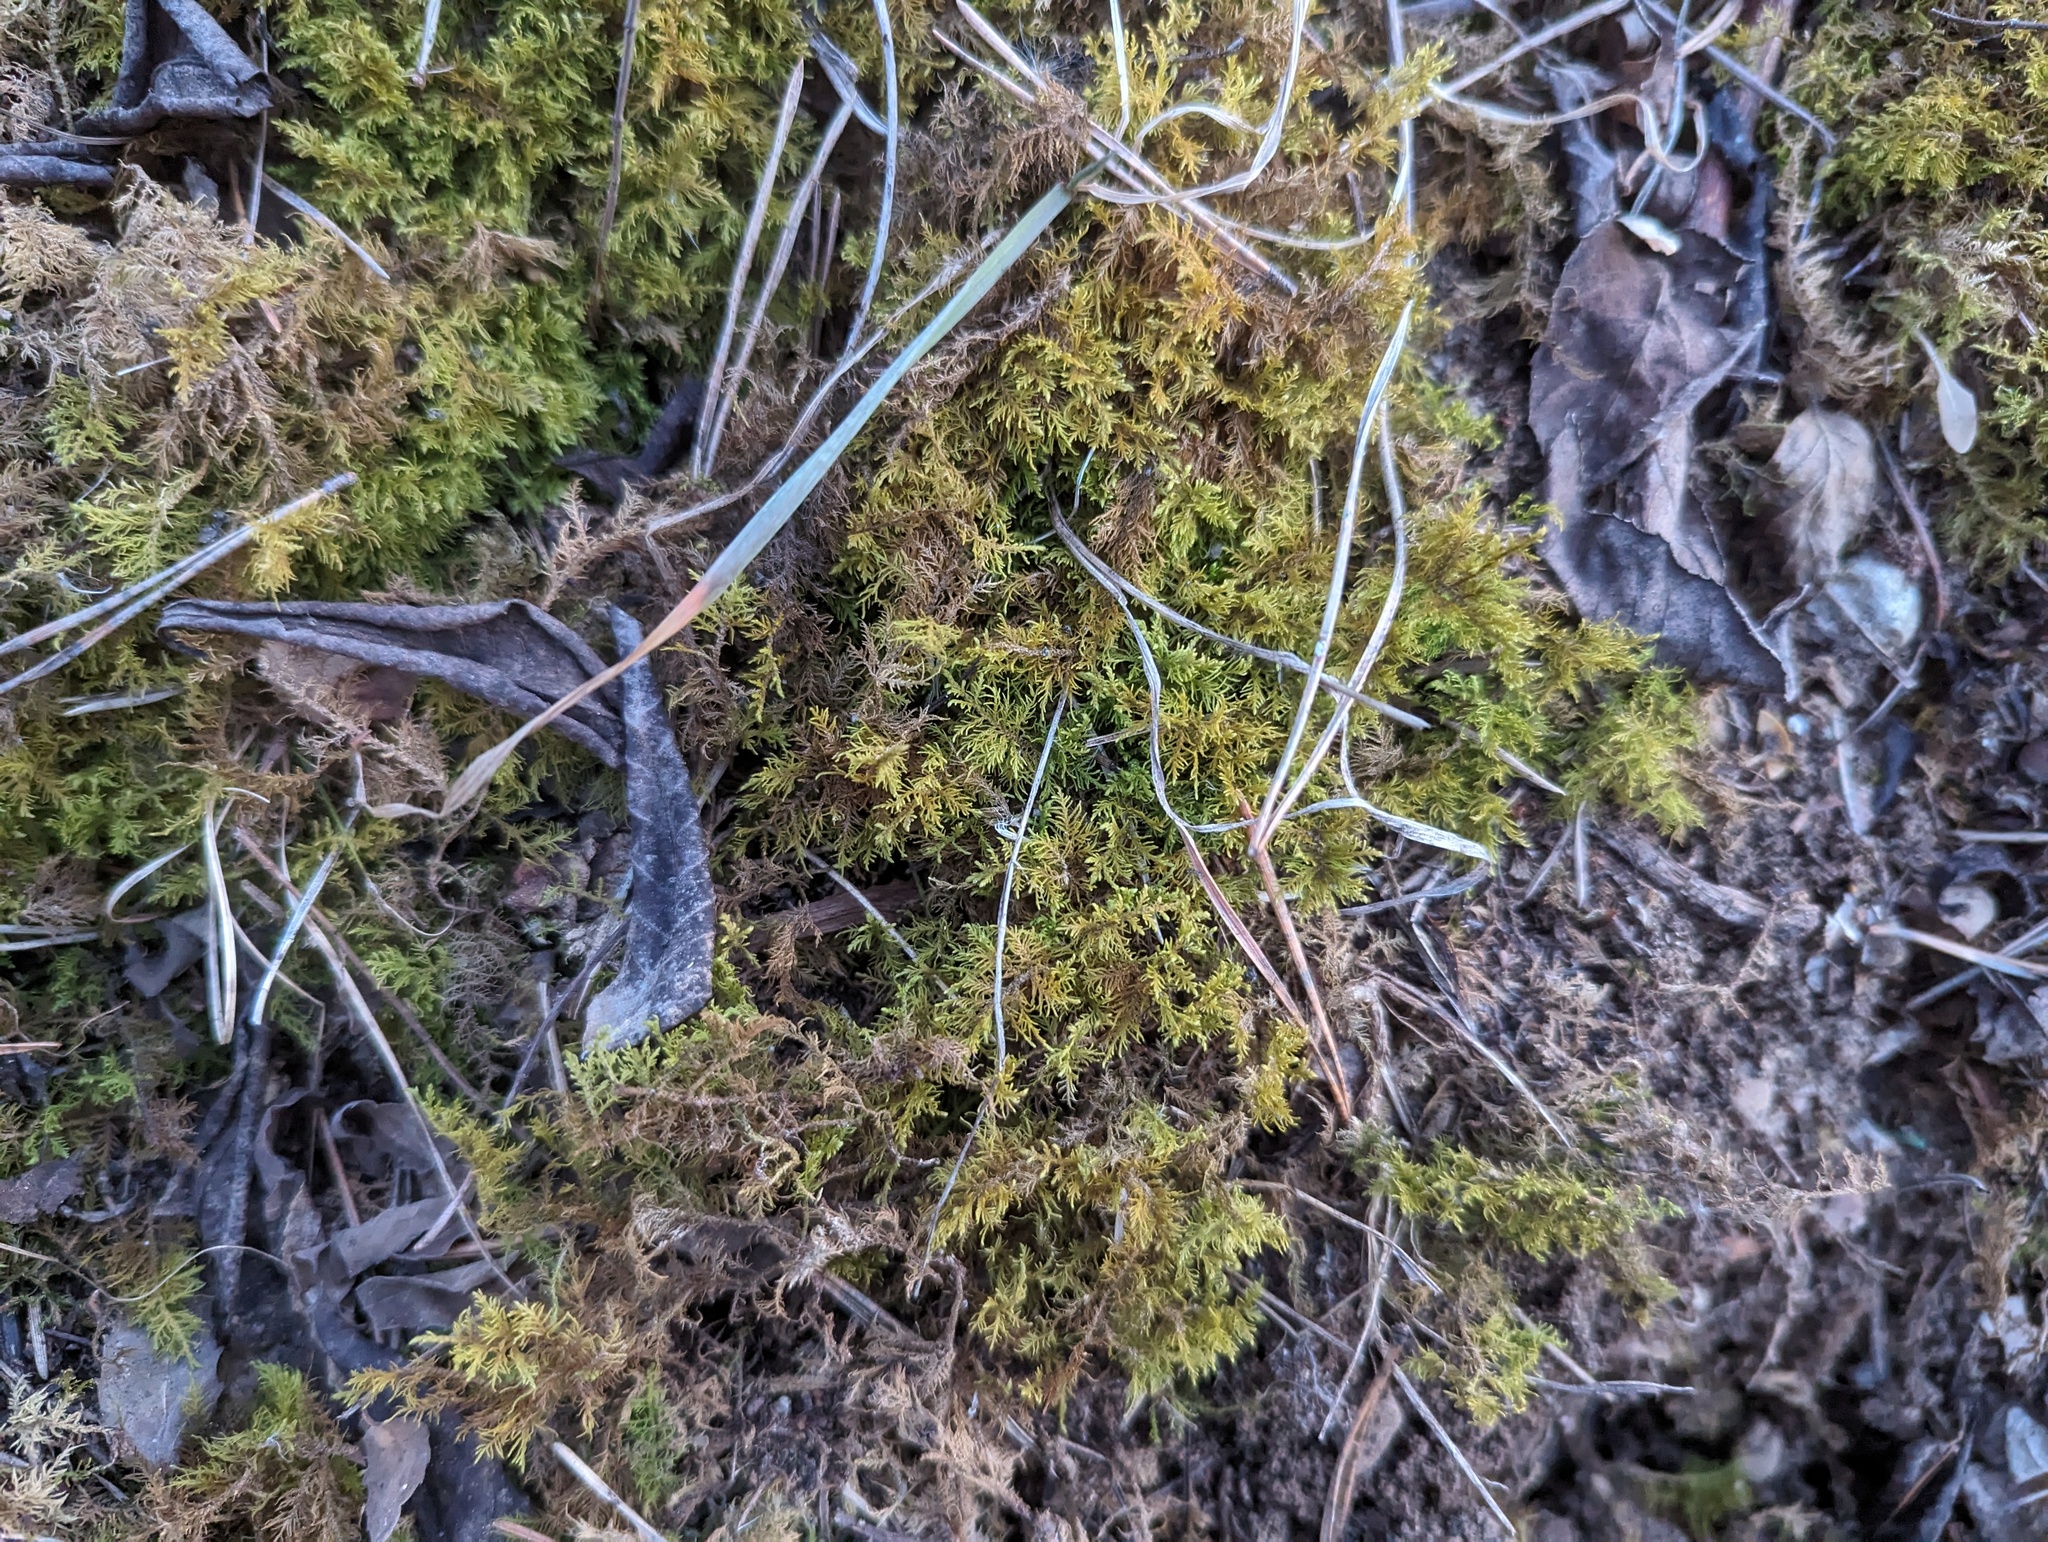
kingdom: Plantae
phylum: Bryophyta
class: Bryopsida
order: Hypnales
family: Thuidiaceae
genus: Thuidium
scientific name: Thuidium delicatulum
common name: Delicate fern moss
